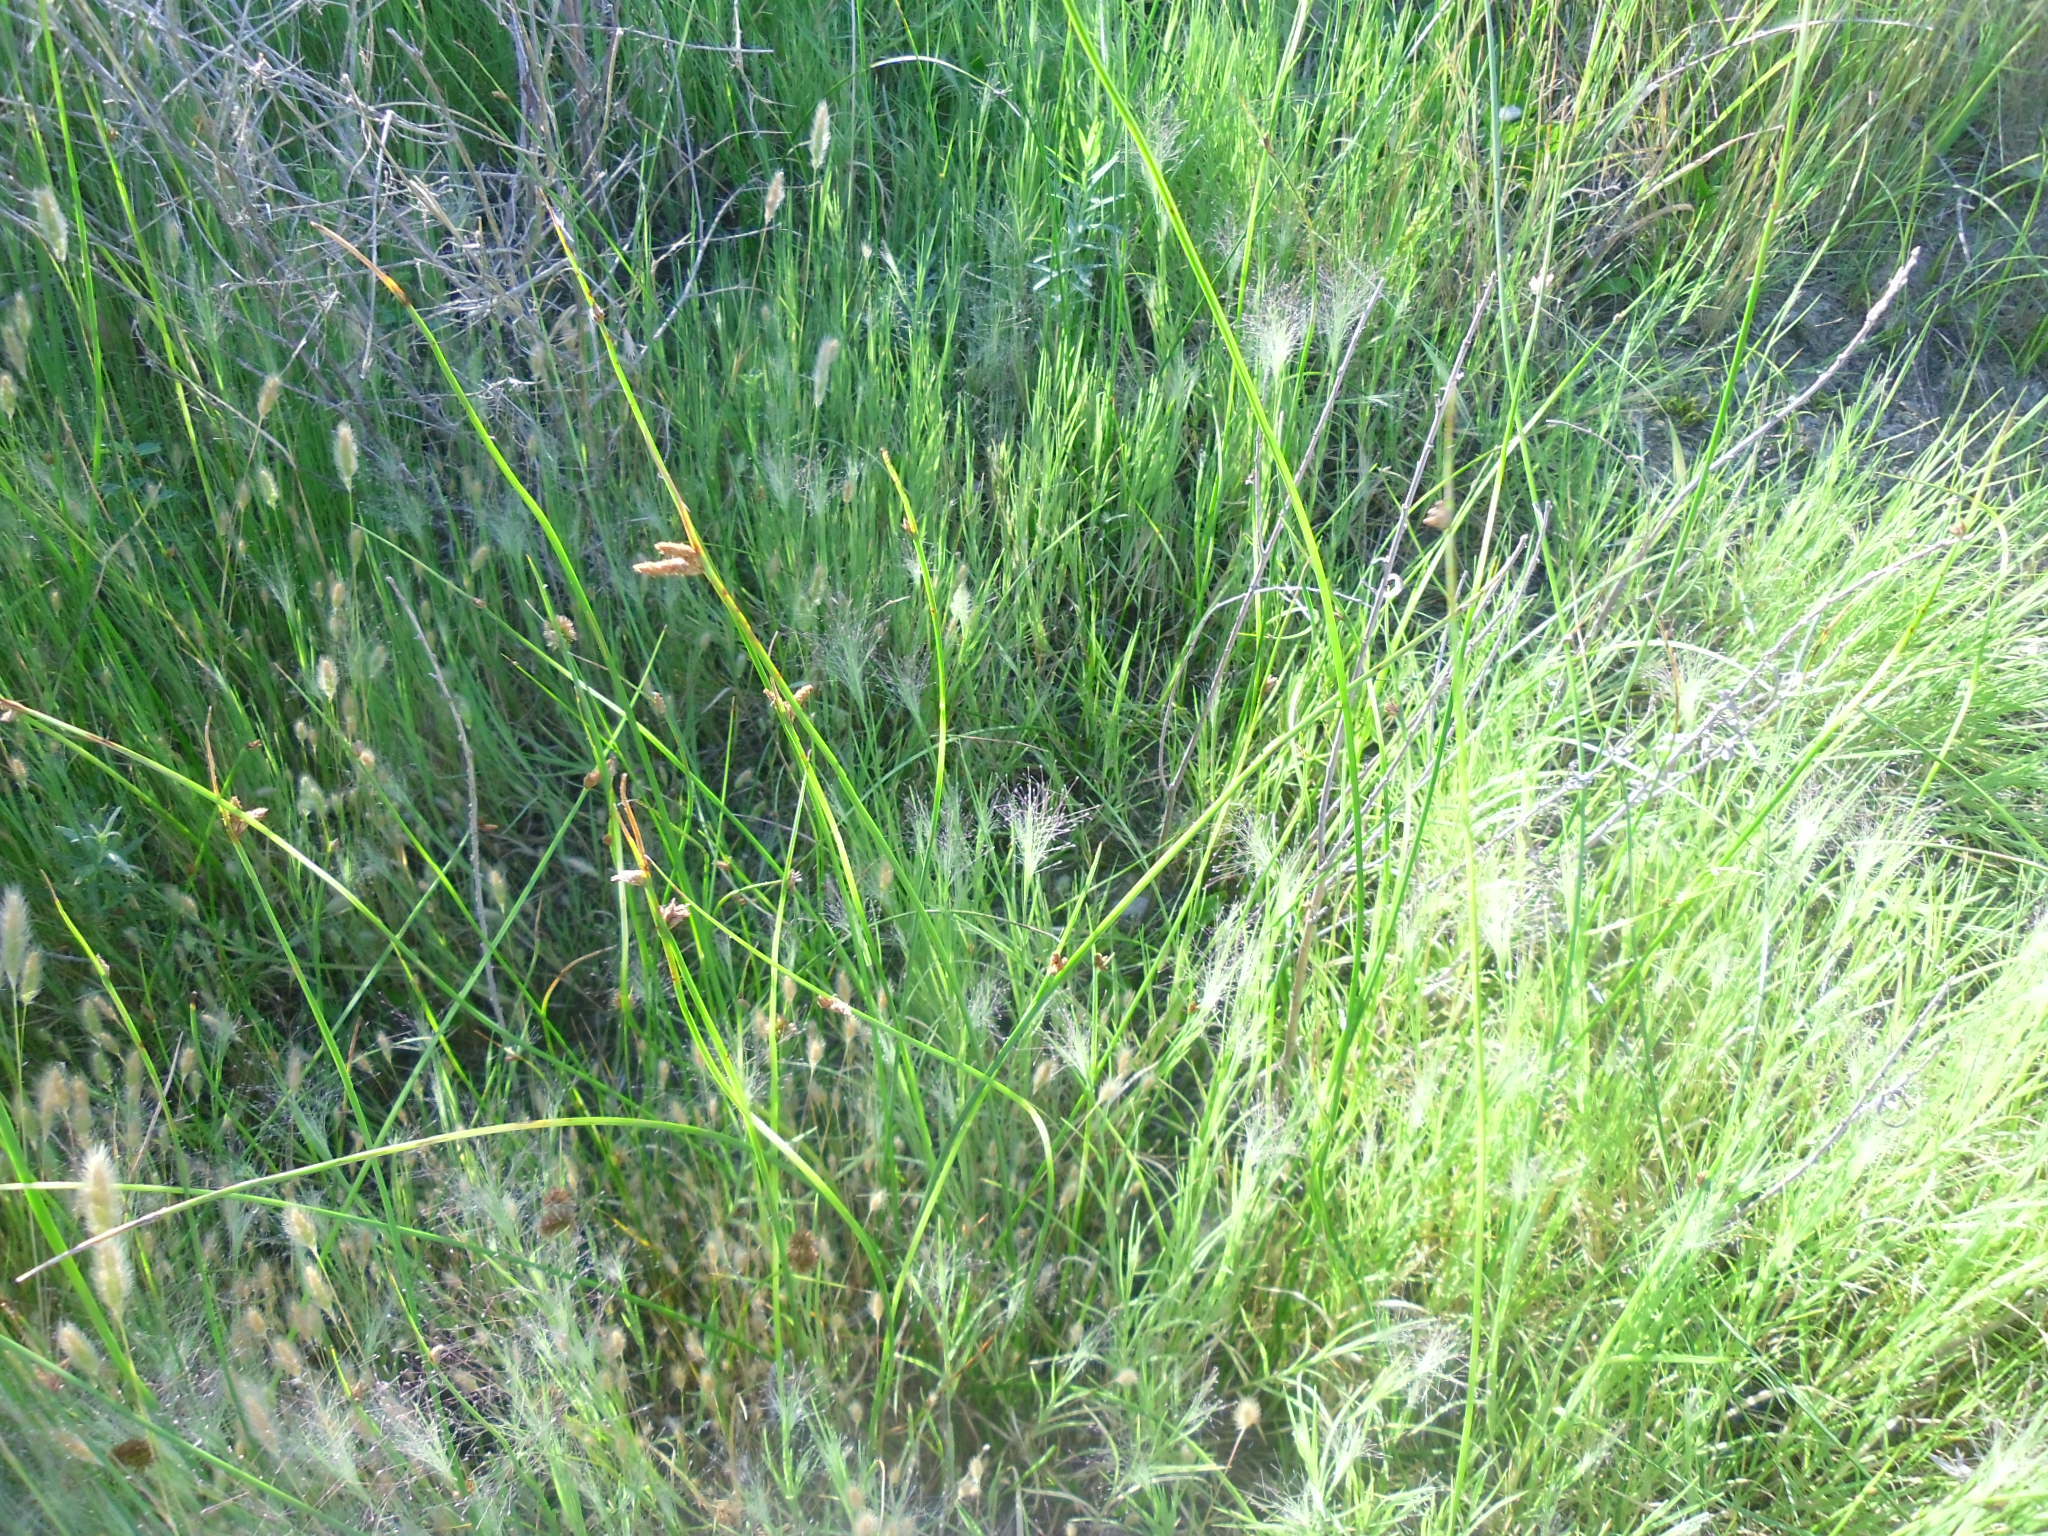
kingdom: Plantae
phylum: Tracheophyta
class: Liliopsida
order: Poales
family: Cyperaceae
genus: Schoenoplectus
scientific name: Schoenoplectus pungens
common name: Sharp club-rush
